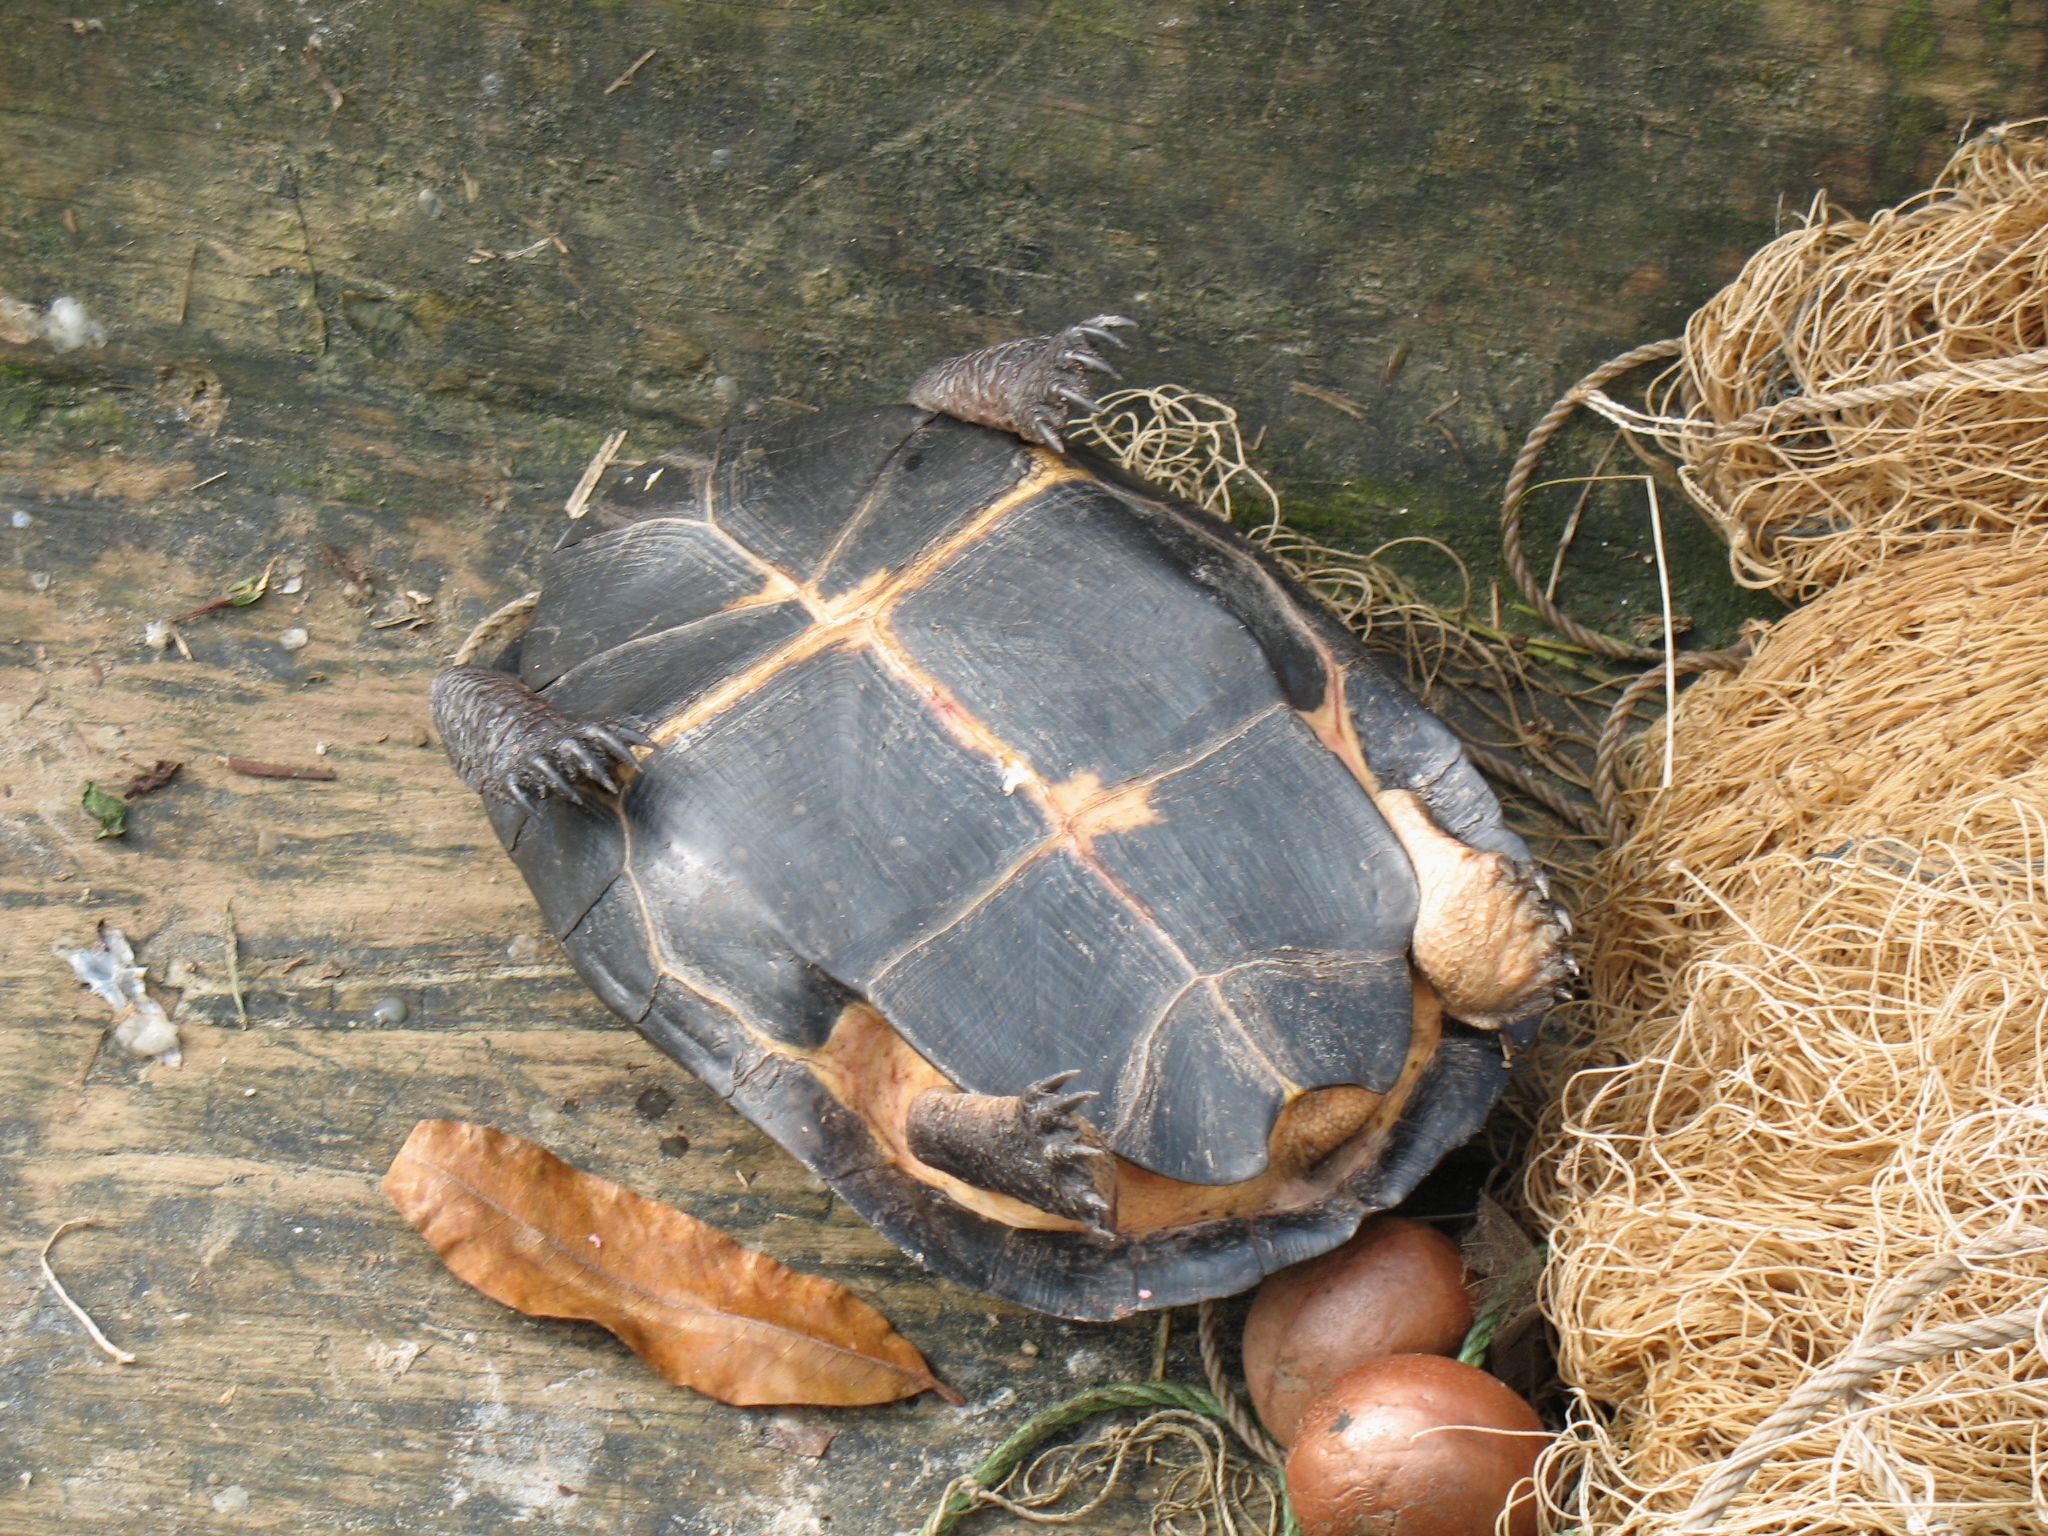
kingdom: Animalia
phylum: Chordata
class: Testudines
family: Pelomedusidae
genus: Pelusios
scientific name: Pelusios niger
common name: West african black mud turtle
